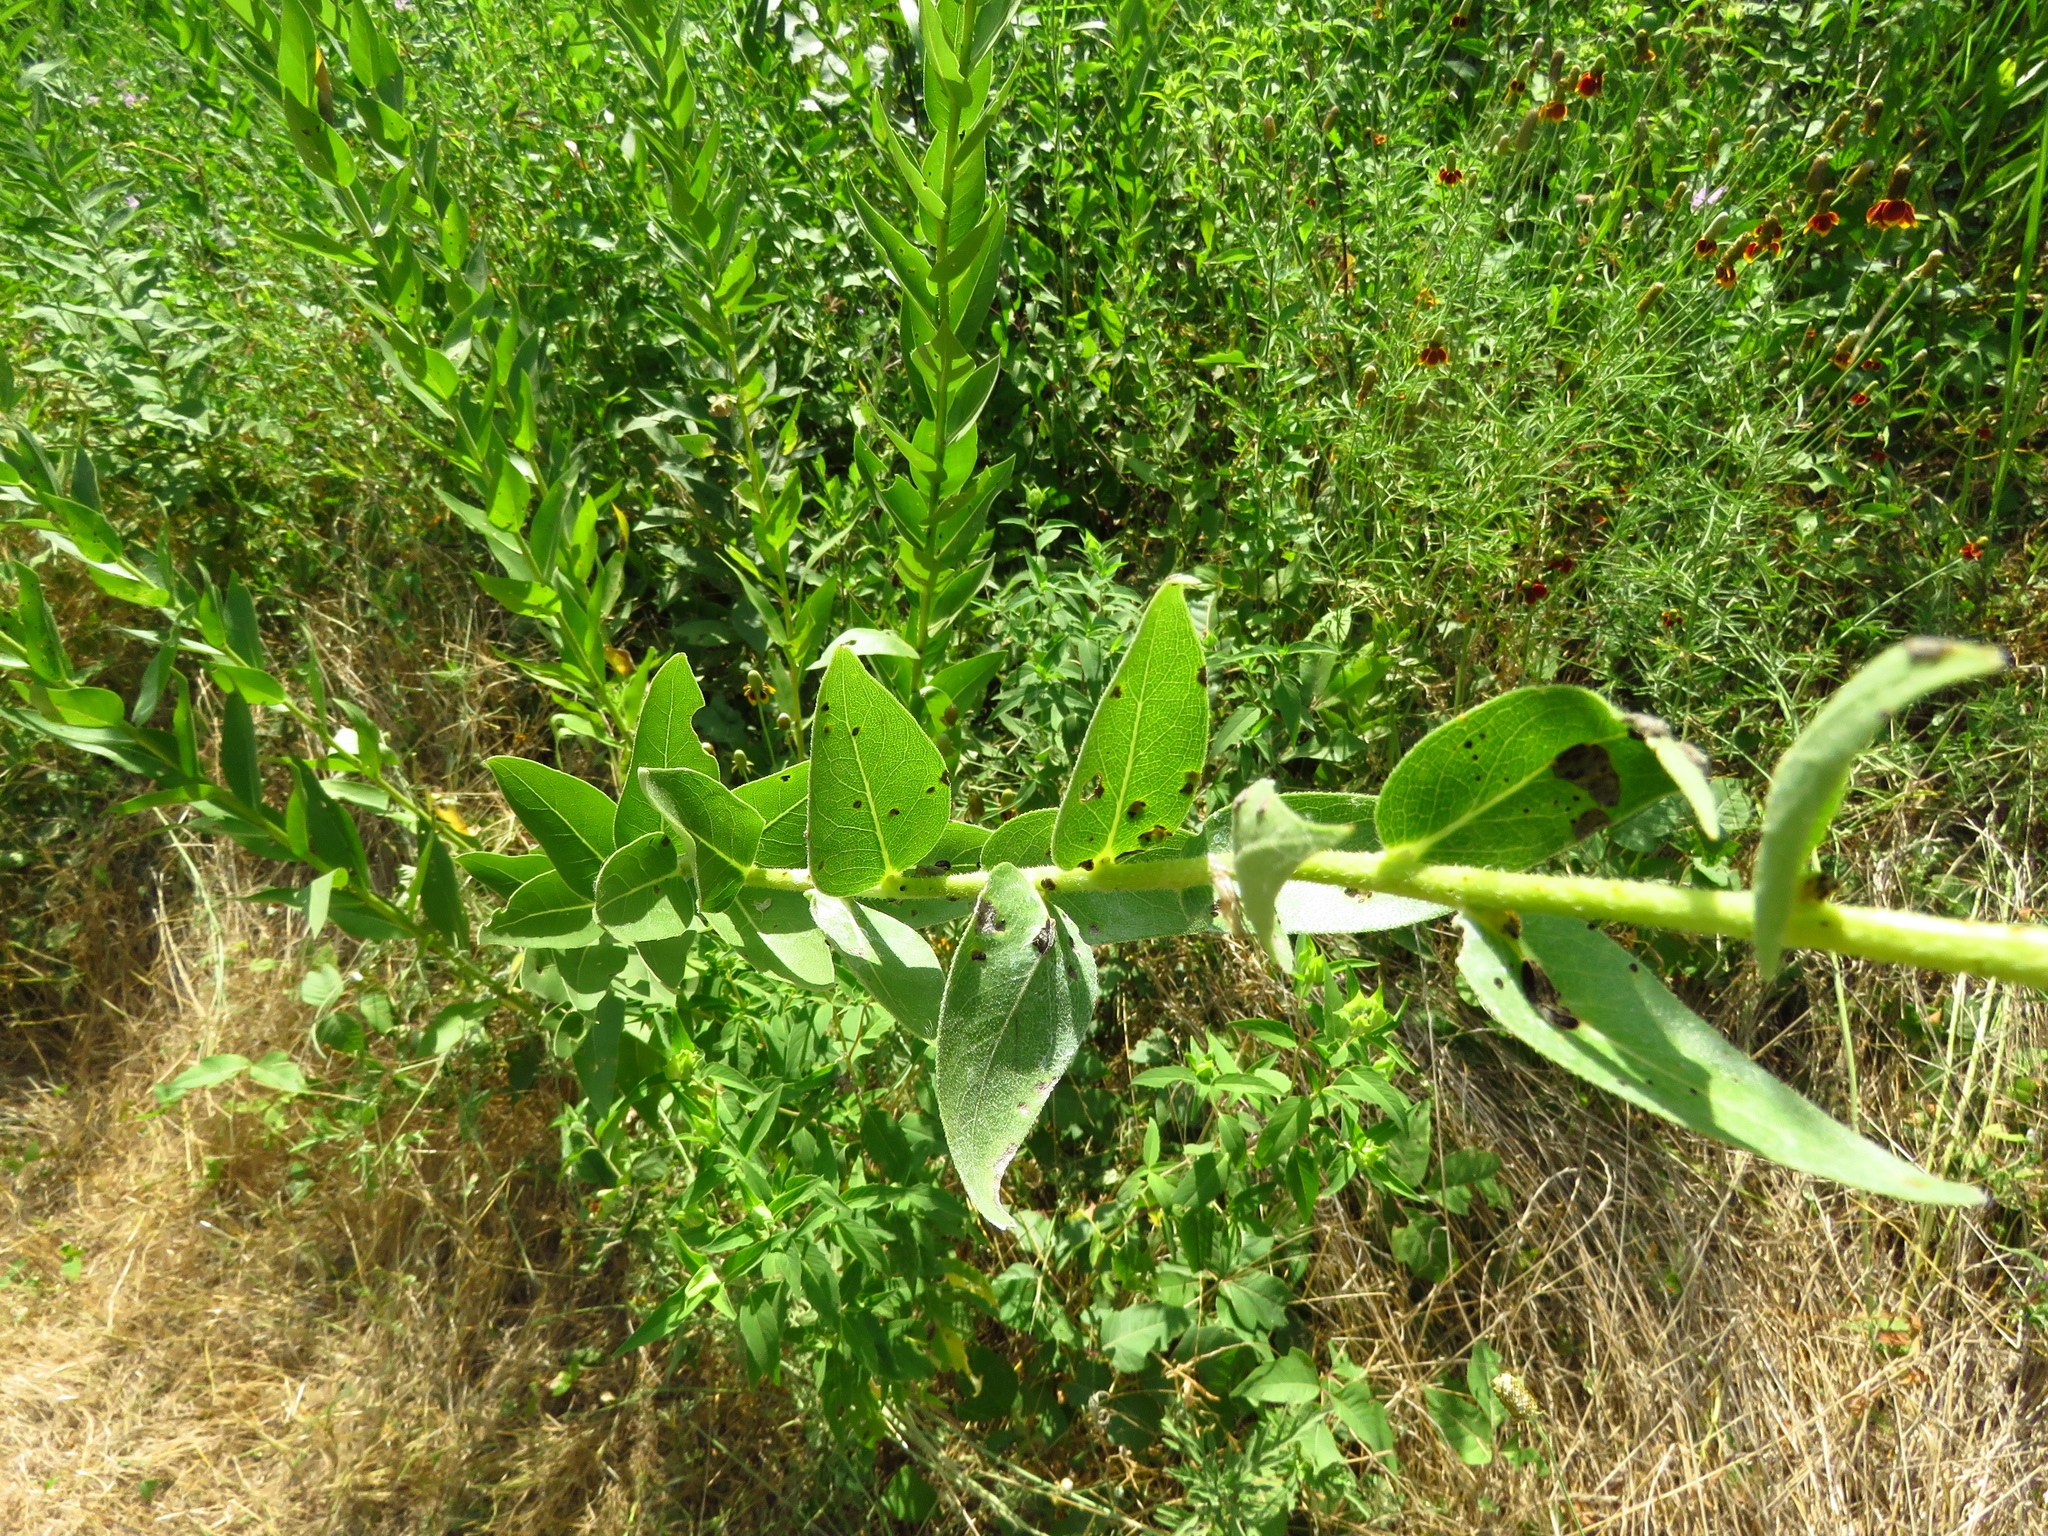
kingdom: Plantae
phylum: Tracheophyta
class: Magnoliopsida
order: Asterales
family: Asteraceae
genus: Silphium
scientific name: Silphium radula
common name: Roughleaf rosinweed
